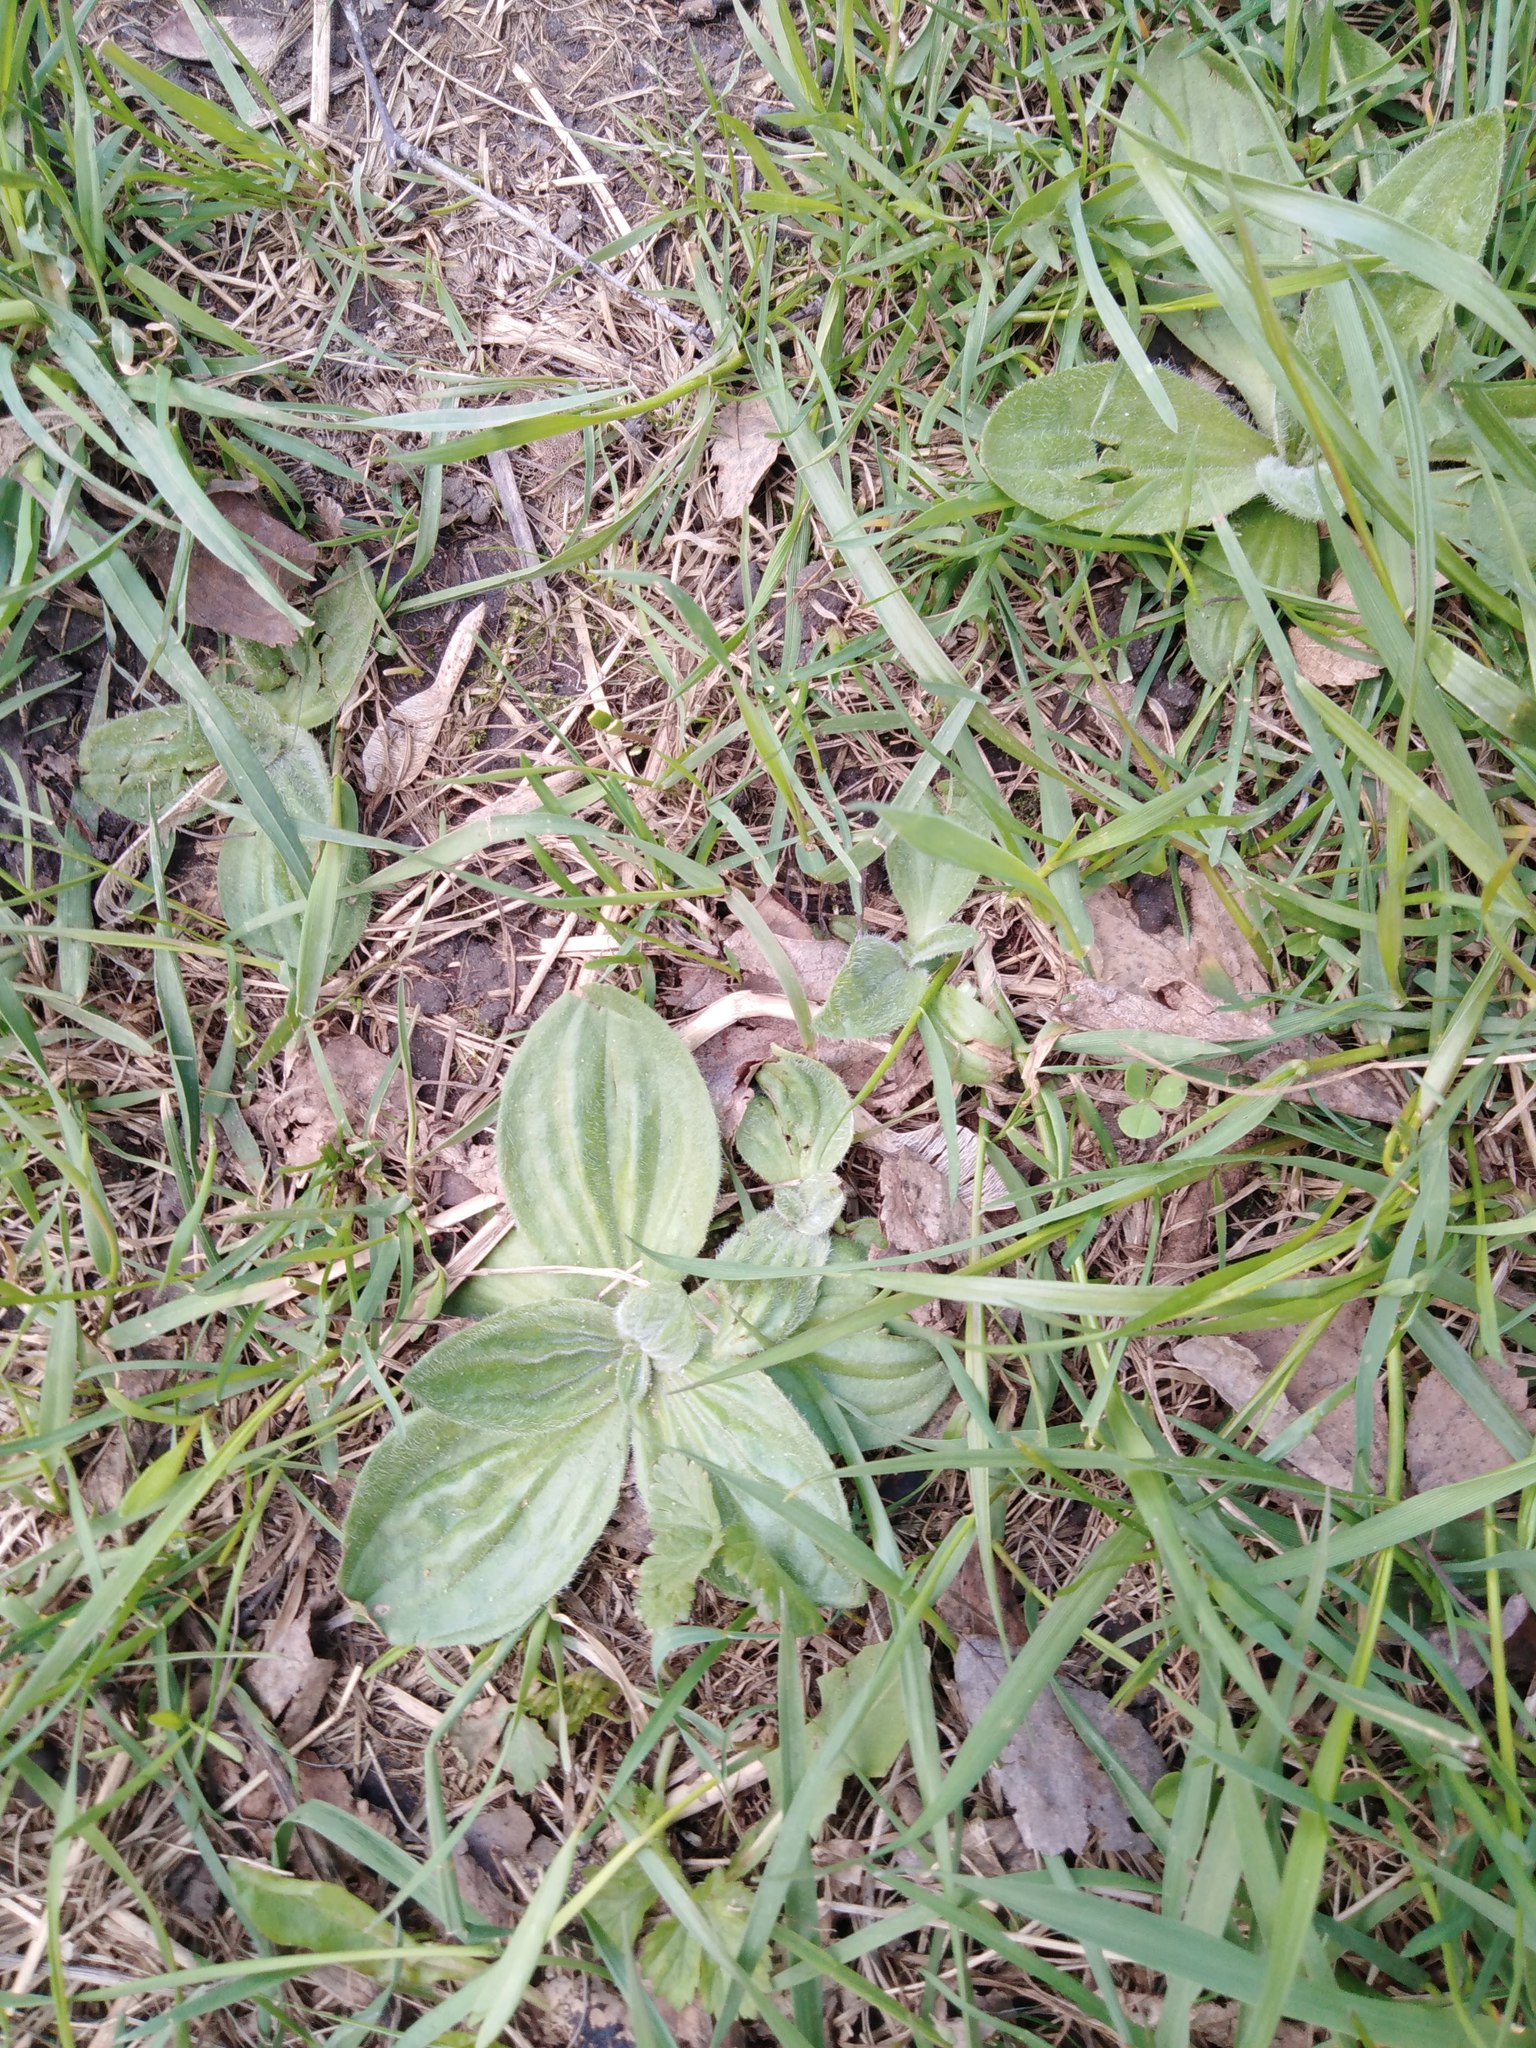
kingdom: Plantae
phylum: Tracheophyta
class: Magnoliopsida
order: Lamiales
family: Plantaginaceae
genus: Plantago
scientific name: Plantago media
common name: Hoary plantain
